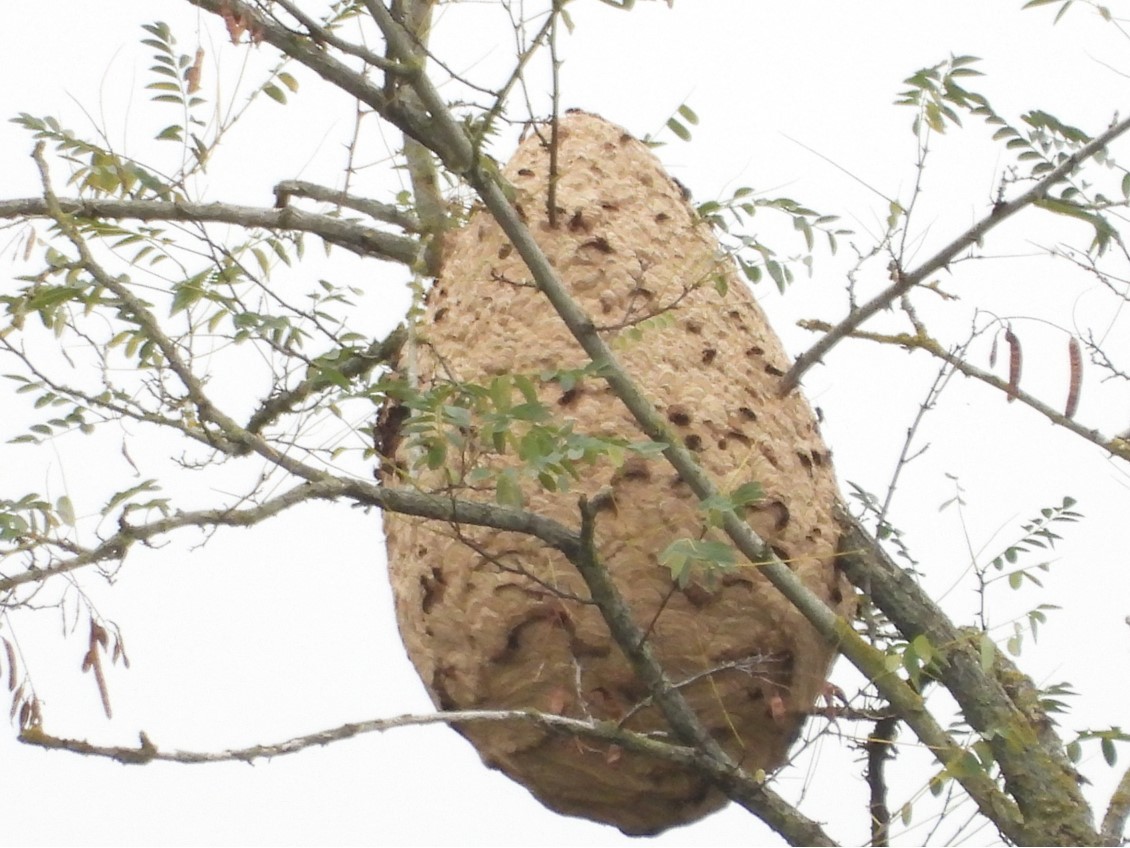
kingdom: Animalia
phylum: Arthropoda
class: Insecta
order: Hymenoptera
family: Vespidae
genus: Vespa
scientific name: Vespa velutina
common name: Asian hornet
